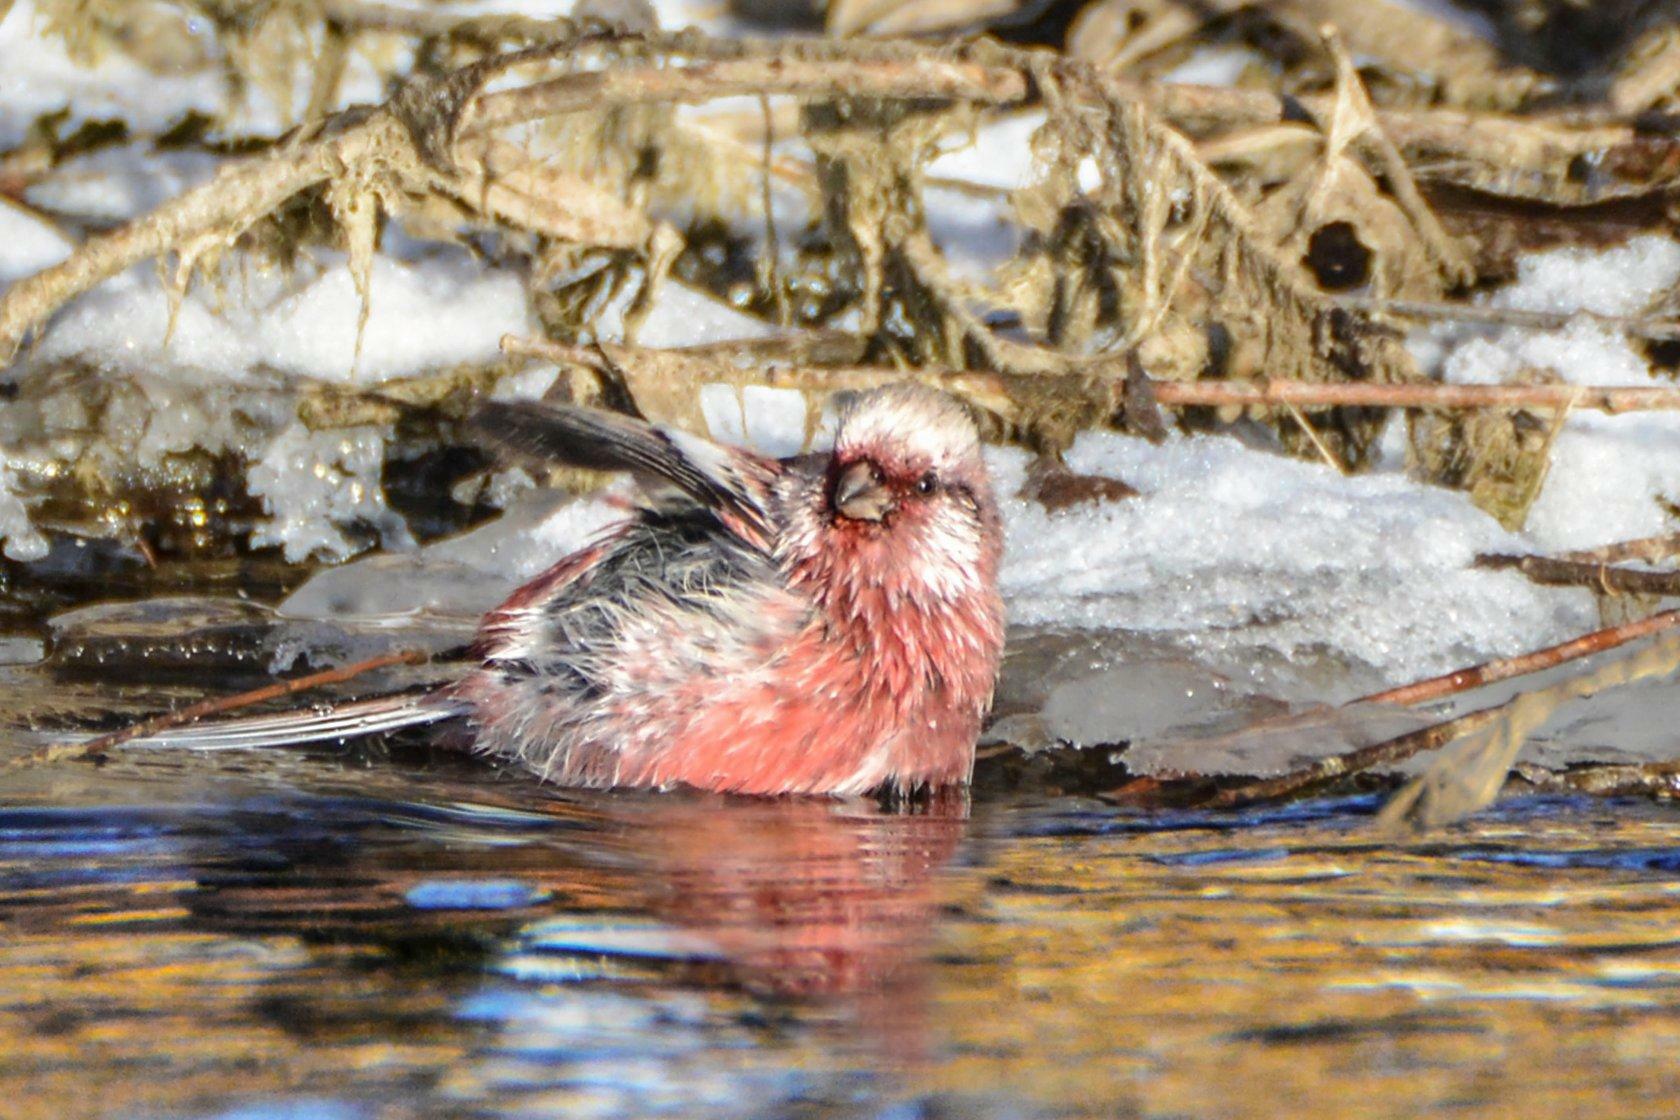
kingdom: Animalia
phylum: Chordata
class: Aves
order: Passeriformes
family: Fringillidae
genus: Carpodacus
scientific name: Carpodacus sibiricus
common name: Long-tailed rosefinch
